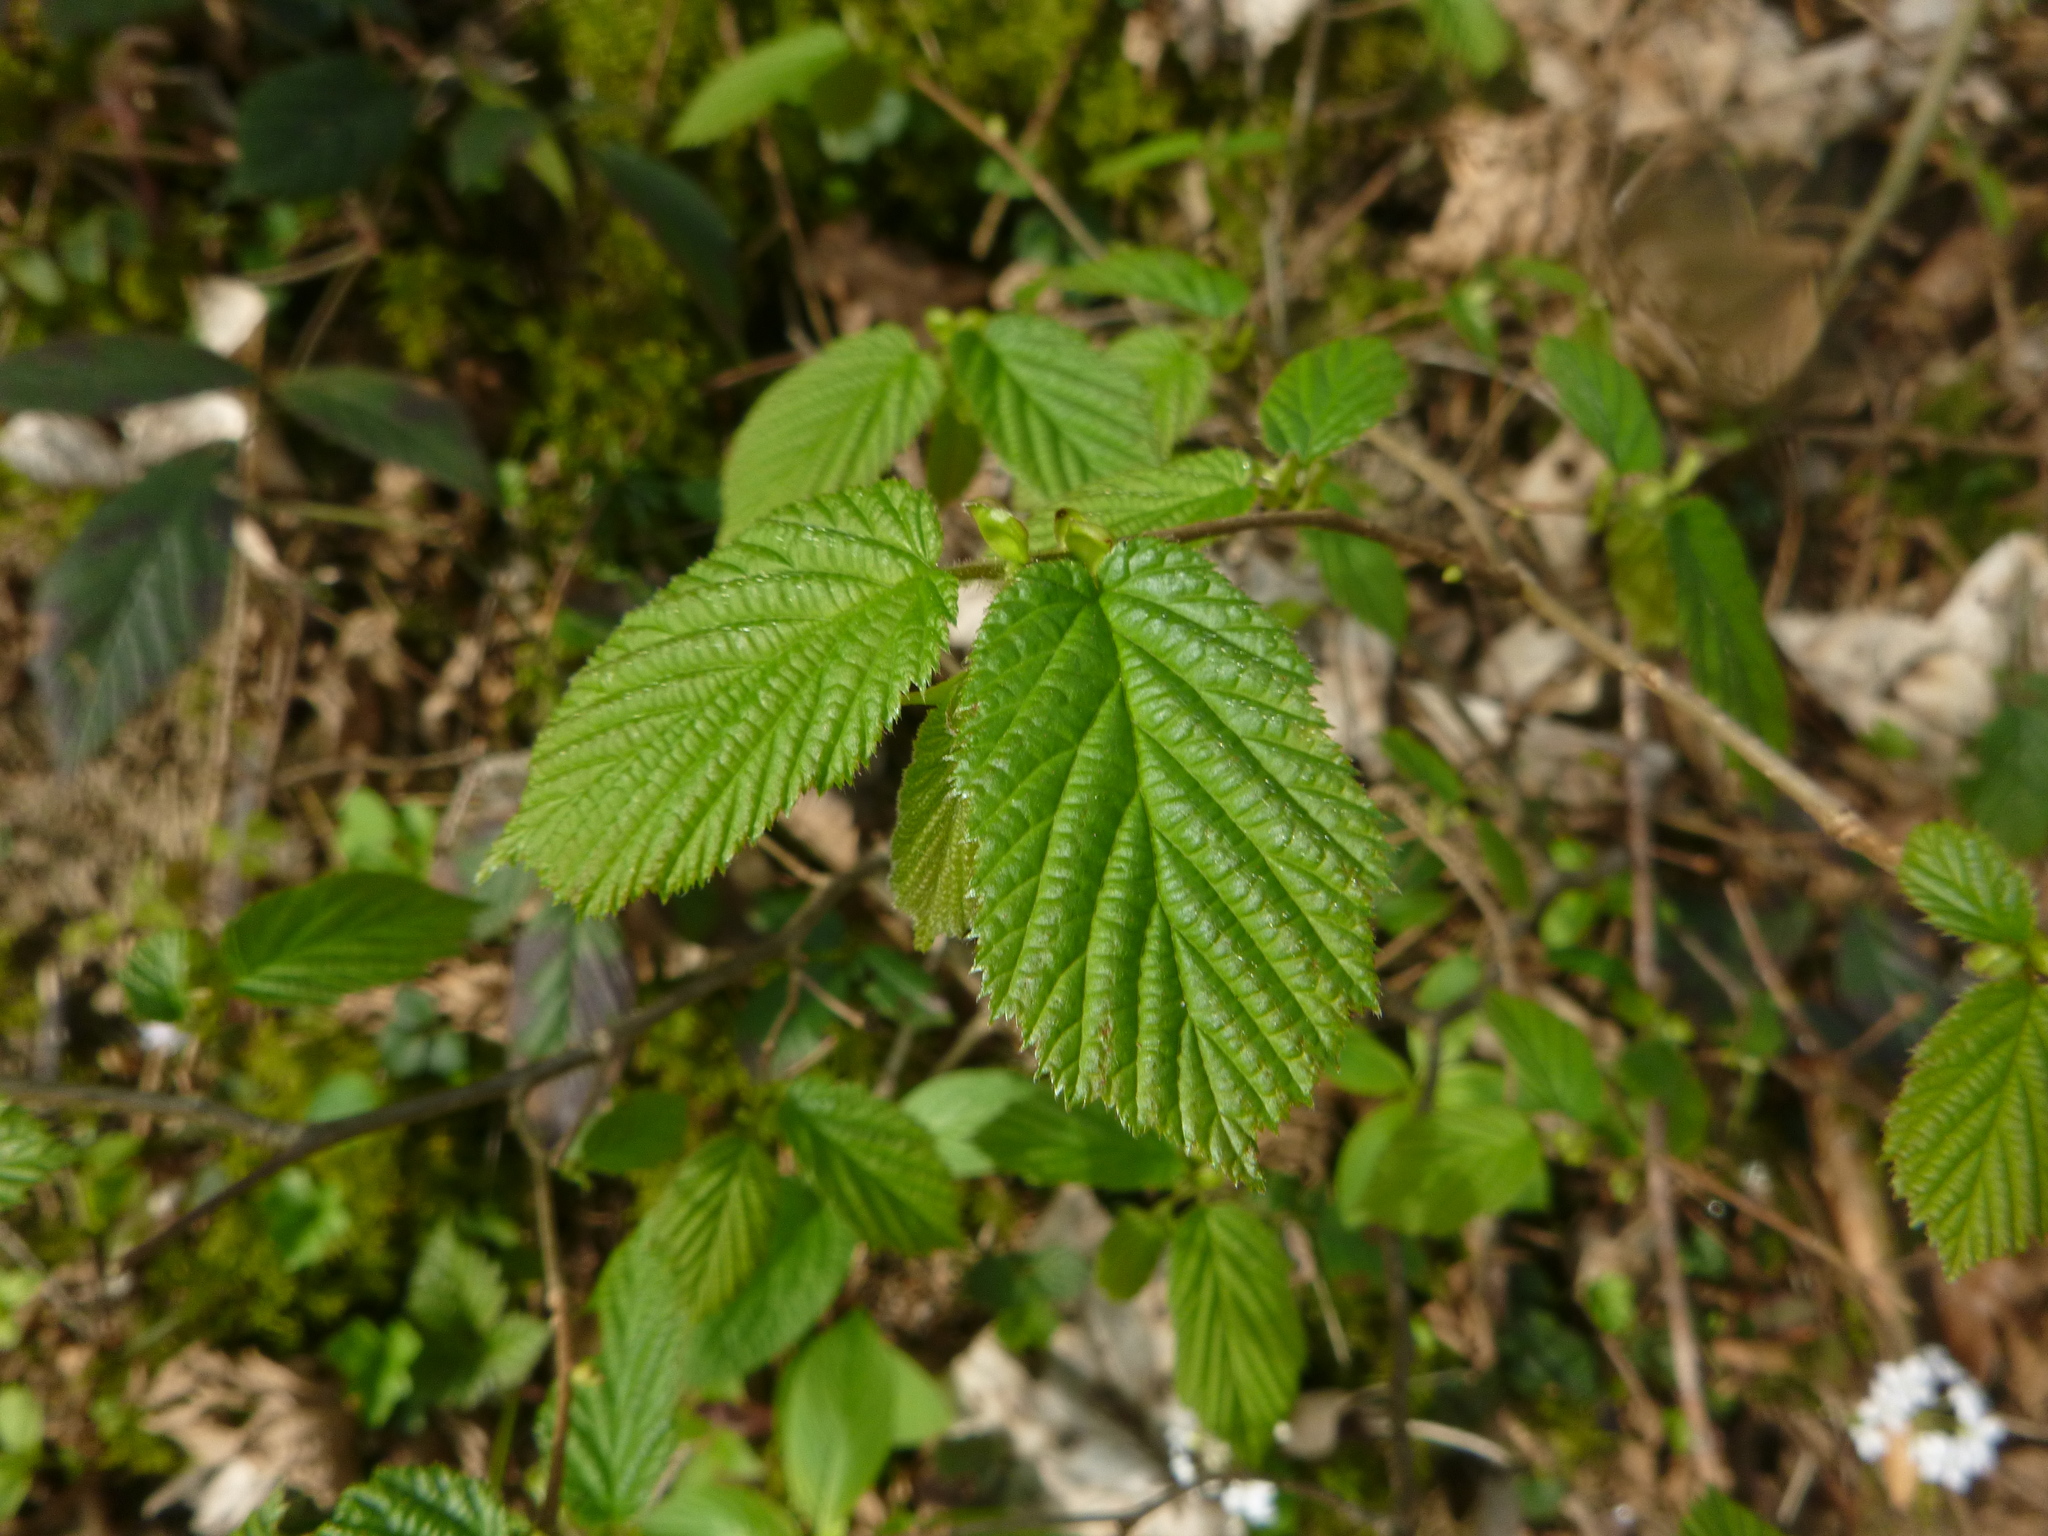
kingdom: Plantae
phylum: Tracheophyta
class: Magnoliopsida
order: Fagales
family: Betulaceae
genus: Corylus
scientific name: Corylus avellana
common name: European hazel
